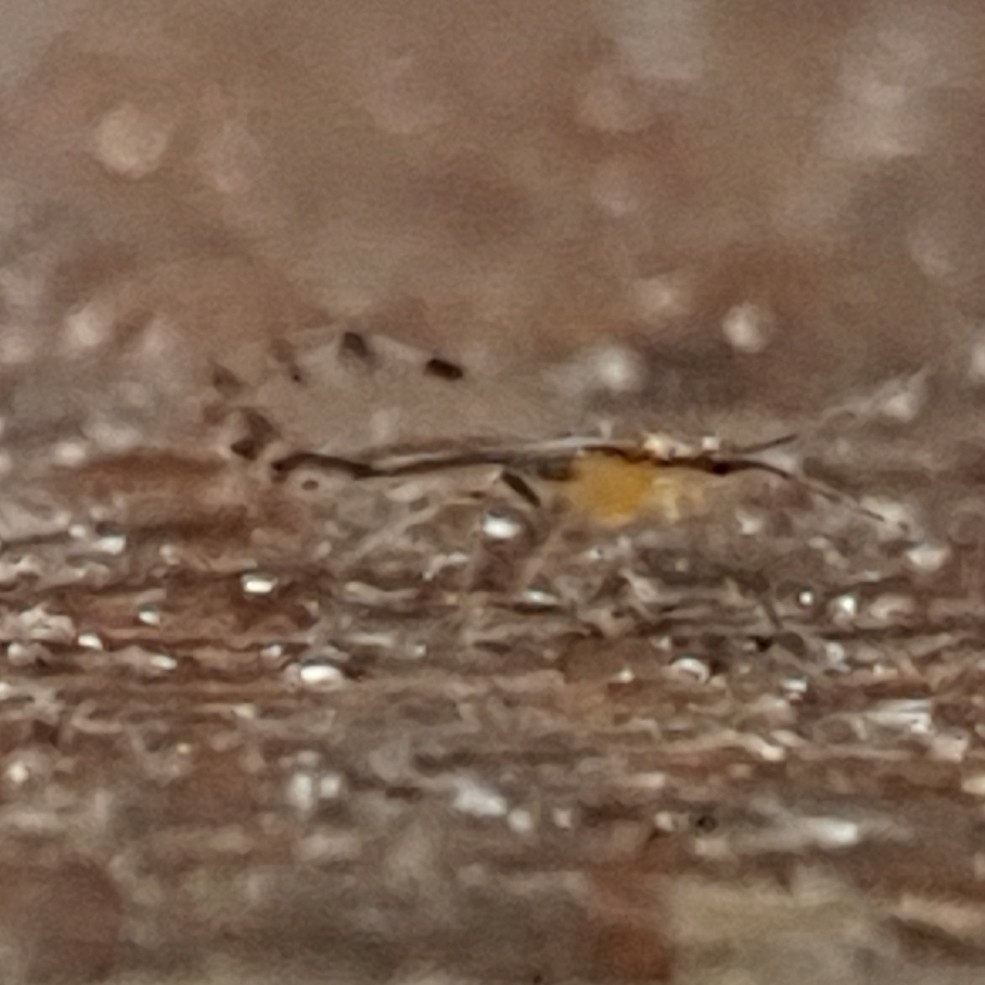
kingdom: Animalia
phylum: Arthropoda
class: Insecta
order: Hemiptera
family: Aphididae
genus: Eucallipterus
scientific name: Eucallipterus tiliae
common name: Aphid
